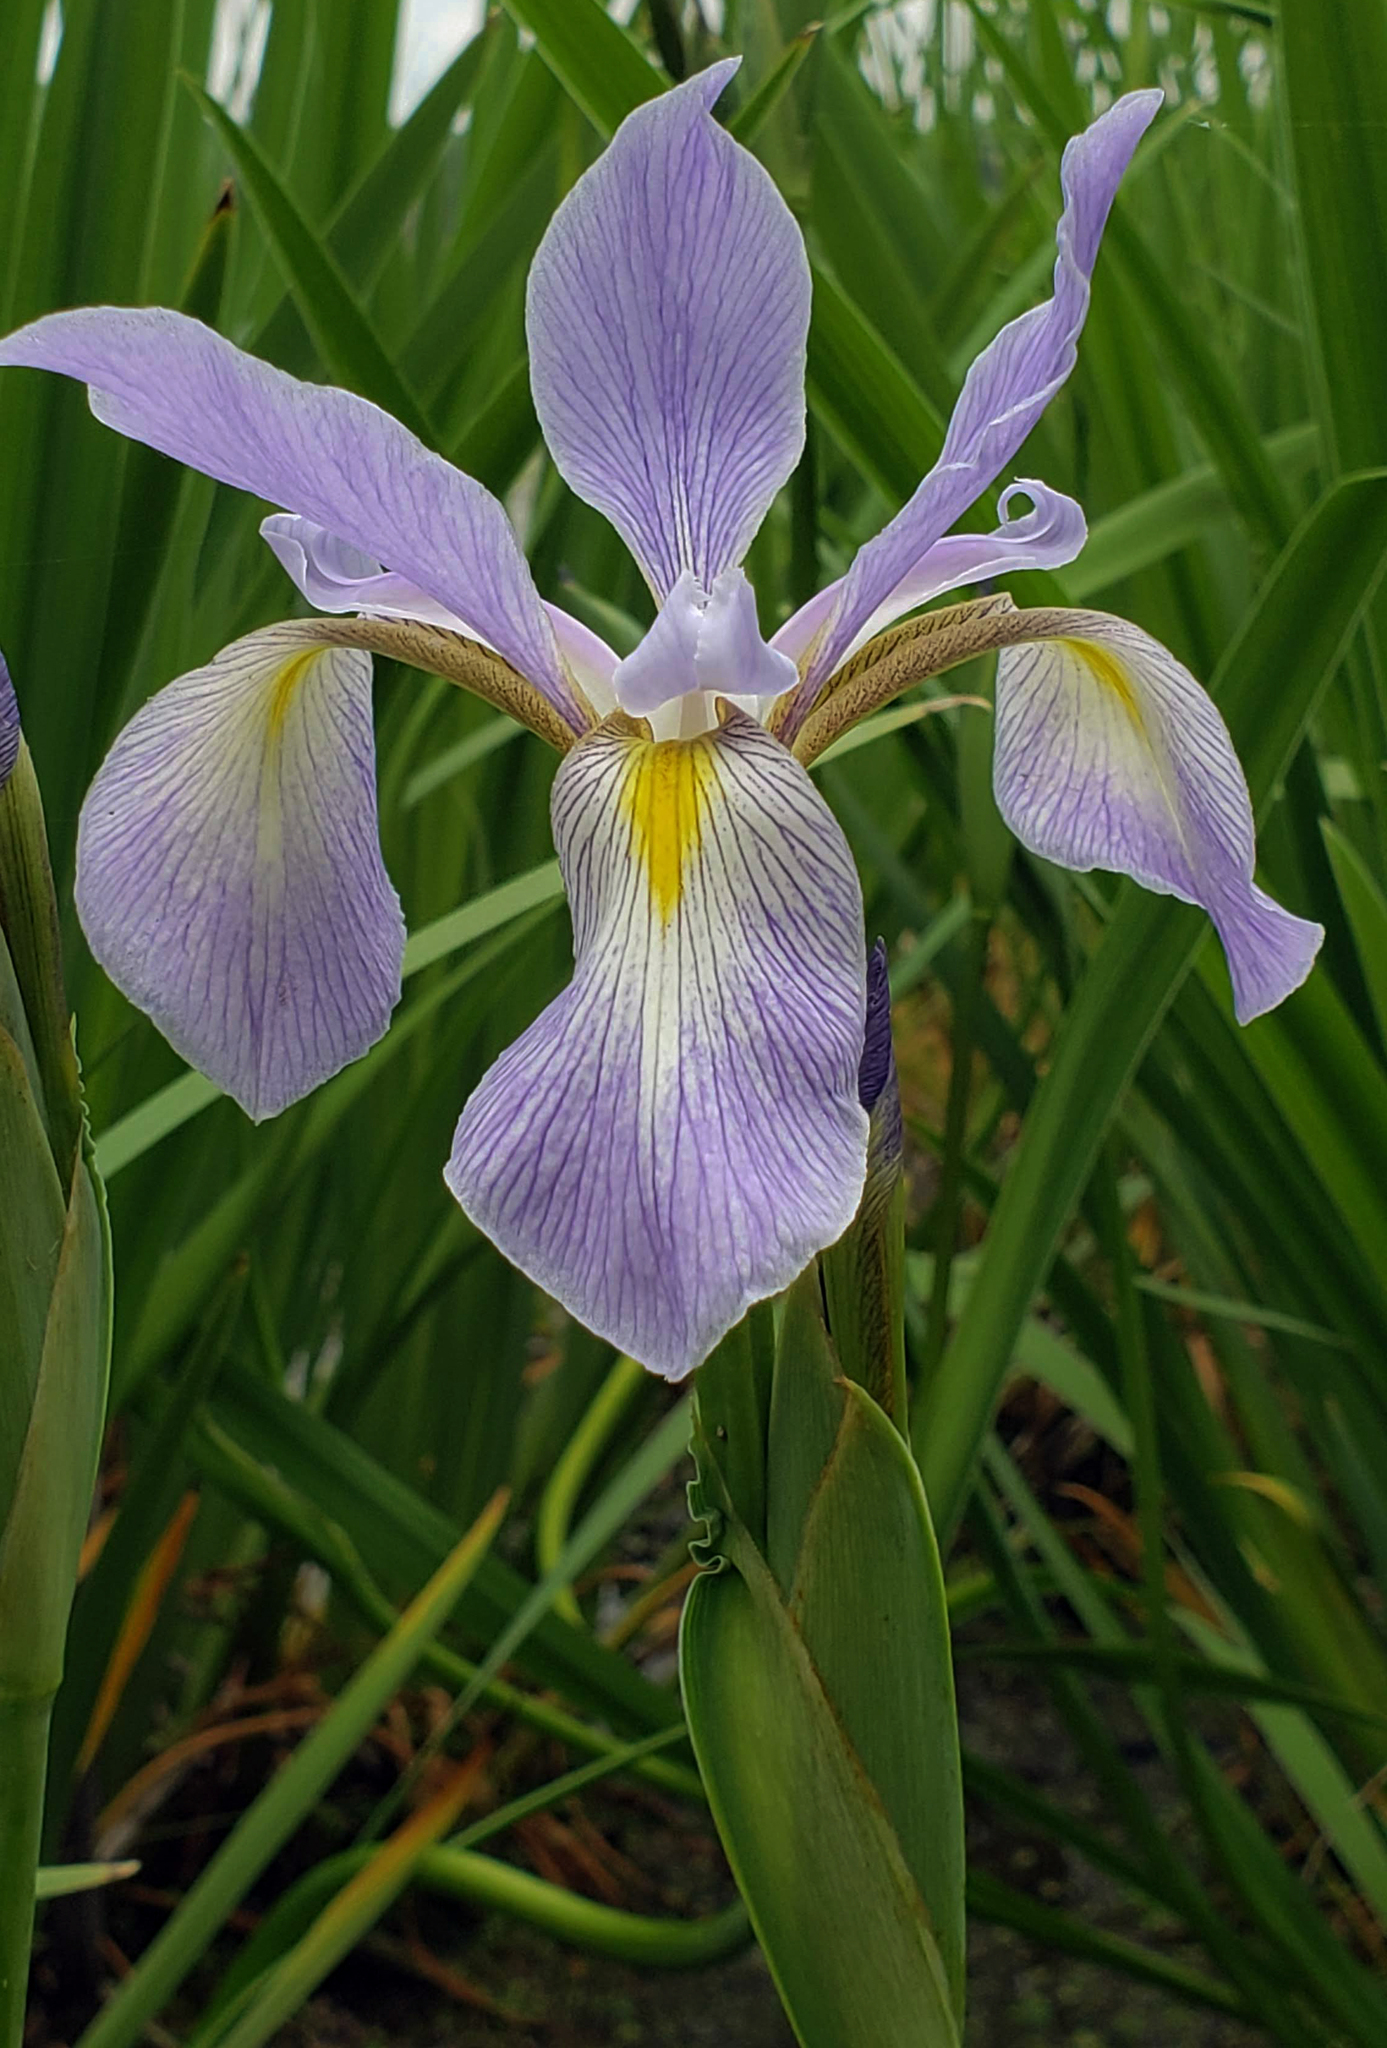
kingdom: Plantae
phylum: Tracheophyta
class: Liliopsida
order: Asparagales
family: Iridaceae
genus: Iris
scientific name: Iris virginica
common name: Southern blue flag
